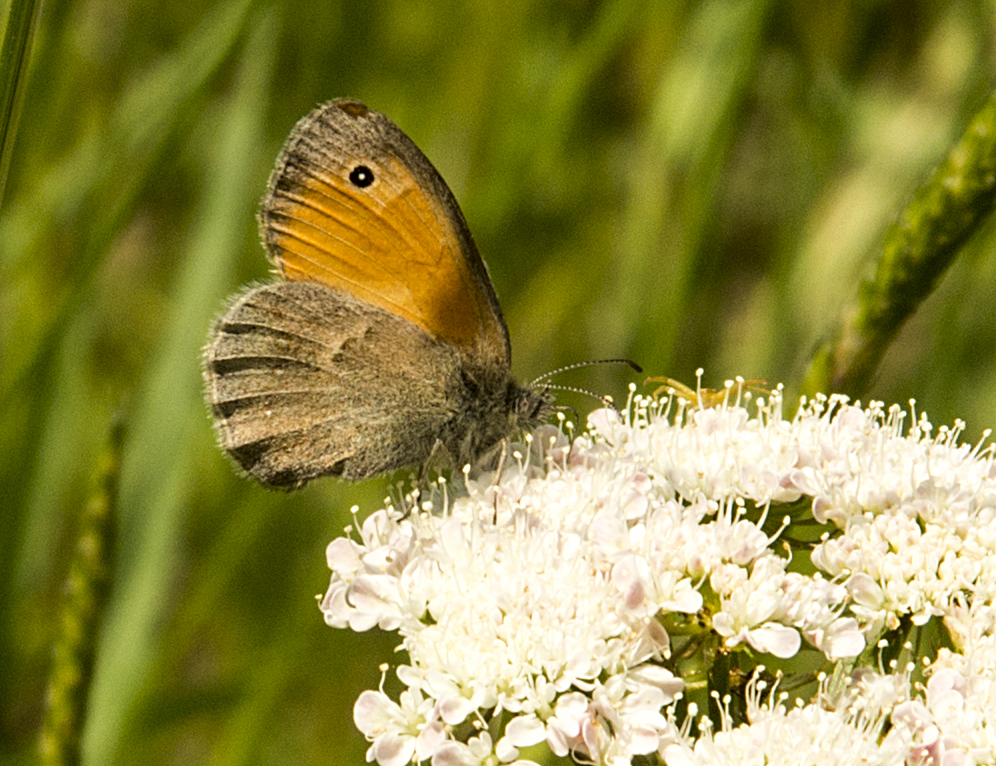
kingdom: Animalia
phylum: Arthropoda
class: Insecta
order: Lepidoptera
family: Nymphalidae
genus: Coenonympha
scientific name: Coenonympha pamphilus
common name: Small heath
